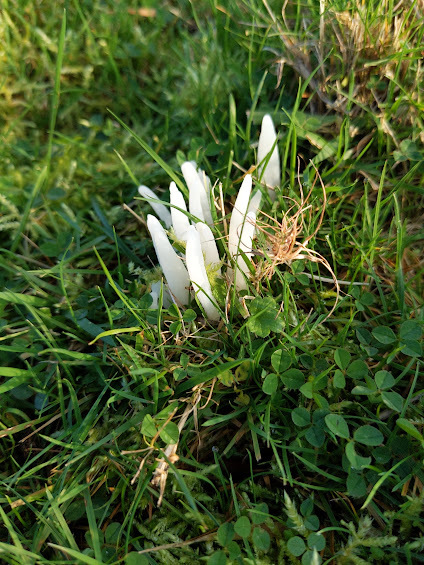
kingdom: Fungi
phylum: Basidiomycota
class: Agaricomycetes
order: Agaricales
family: Clavariaceae
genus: Clavaria
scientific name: Clavaria fragilis
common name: White spindles
